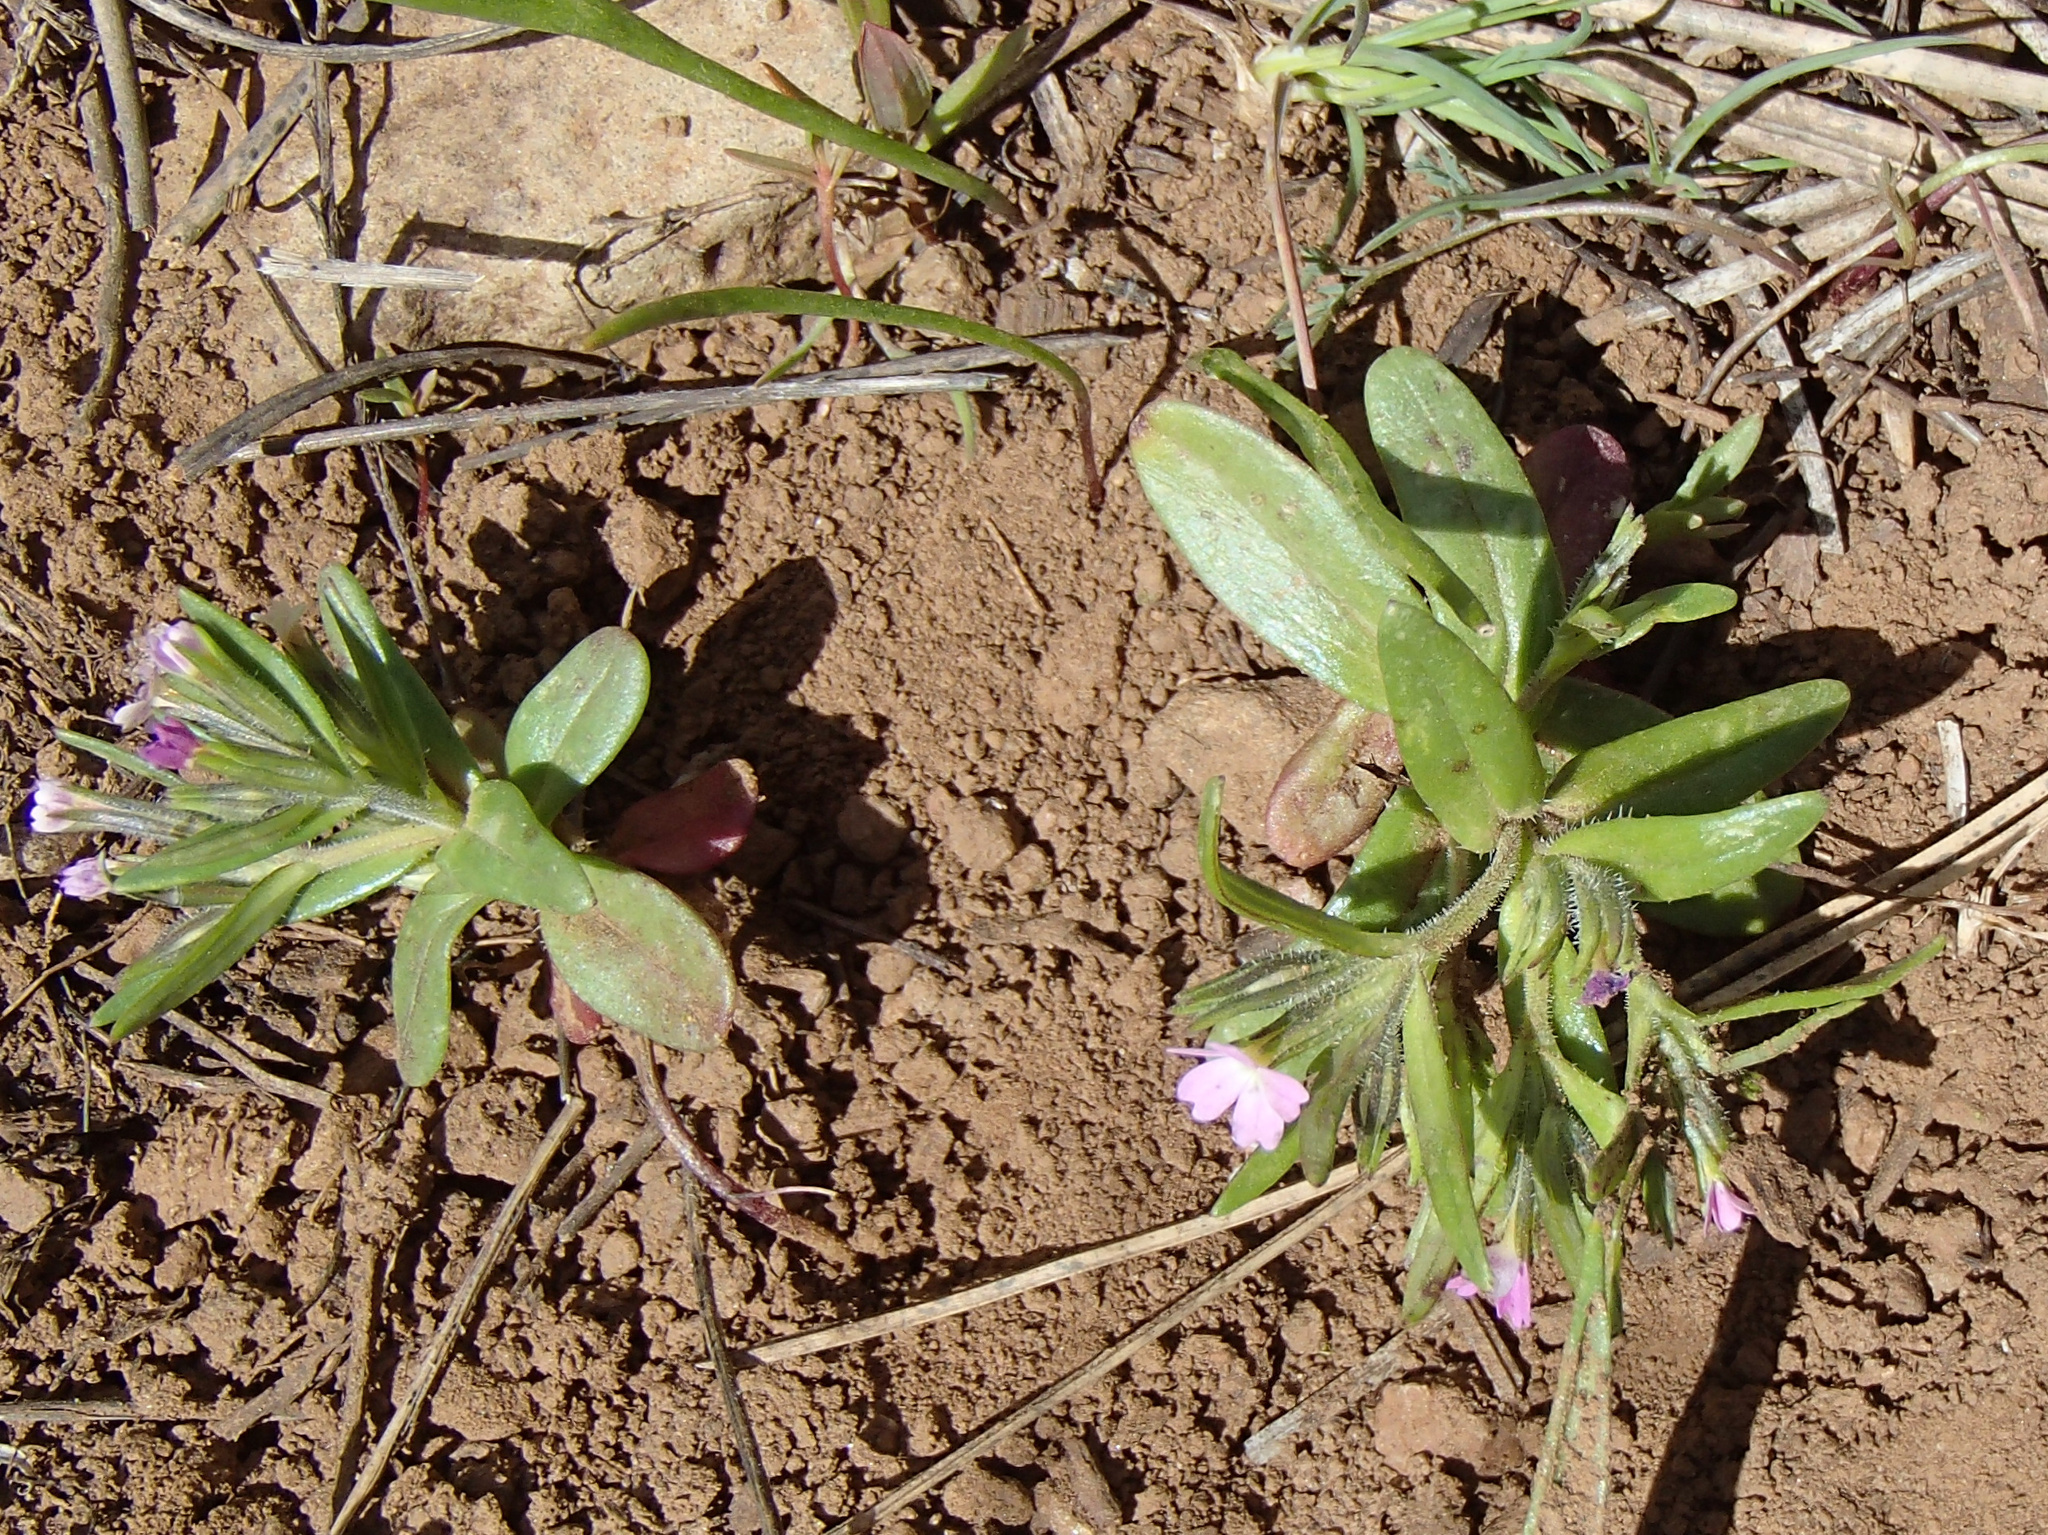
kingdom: Plantae
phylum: Tracheophyta
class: Magnoliopsida
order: Ericales
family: Polemoniaceae
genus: Phlox
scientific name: Phlox gracilis
